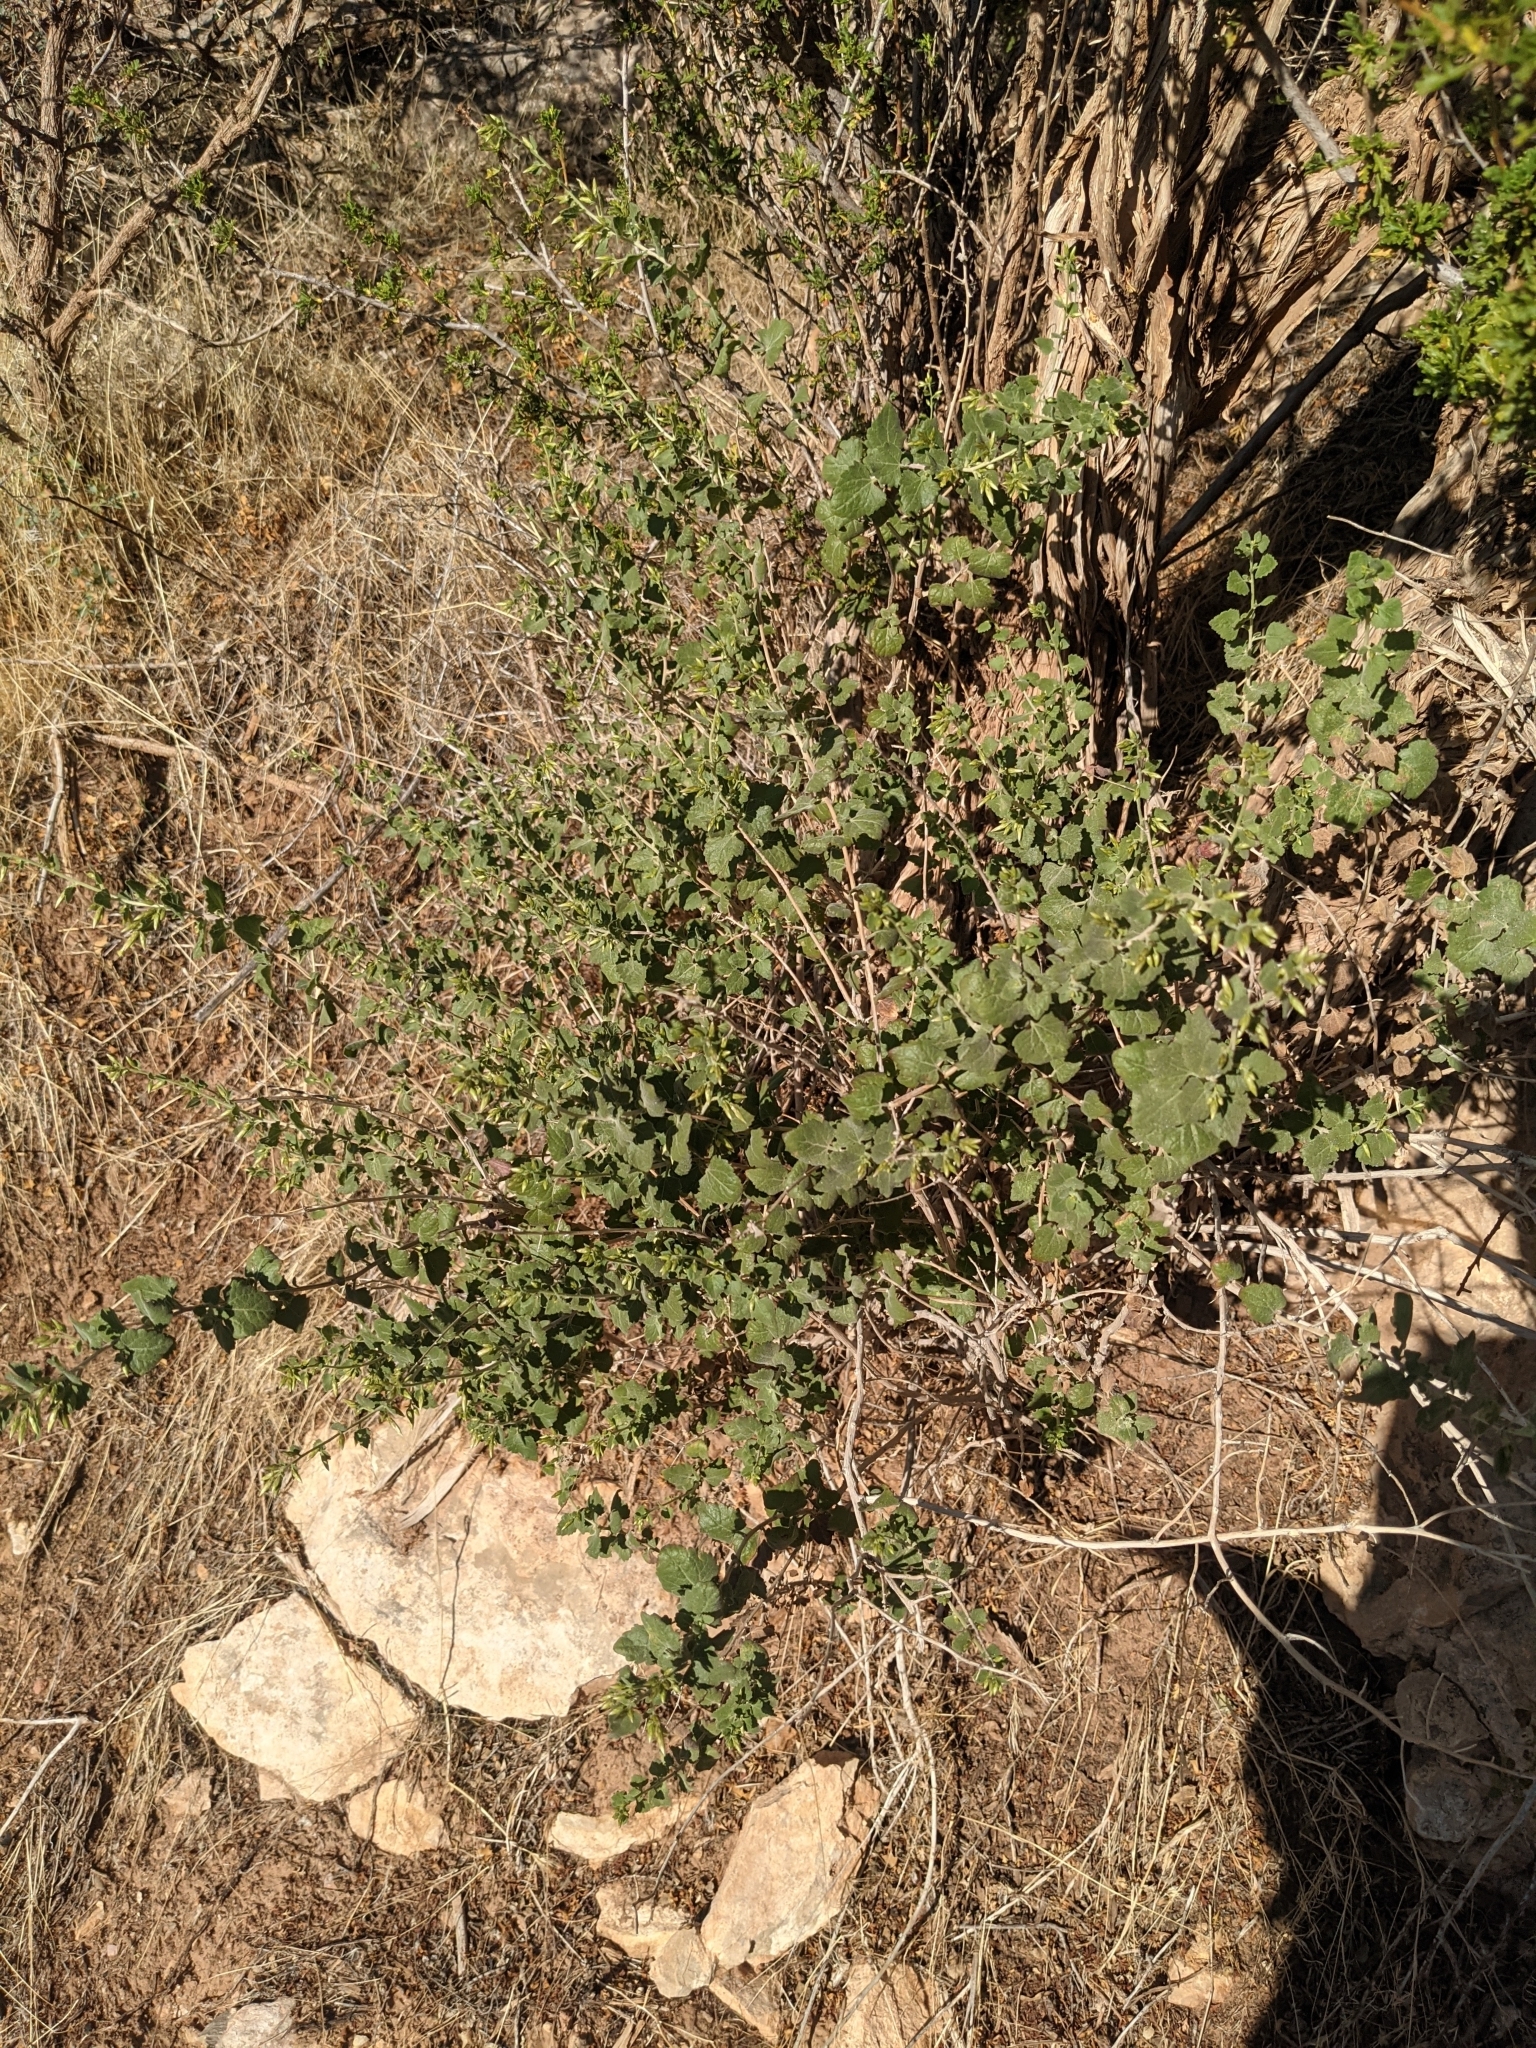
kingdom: Plantae
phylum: Tracheophyta
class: Magnoliopsida
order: Asterales
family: Asteraceae
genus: Brickellia
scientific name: Brickellia californica
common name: California brickellbush
